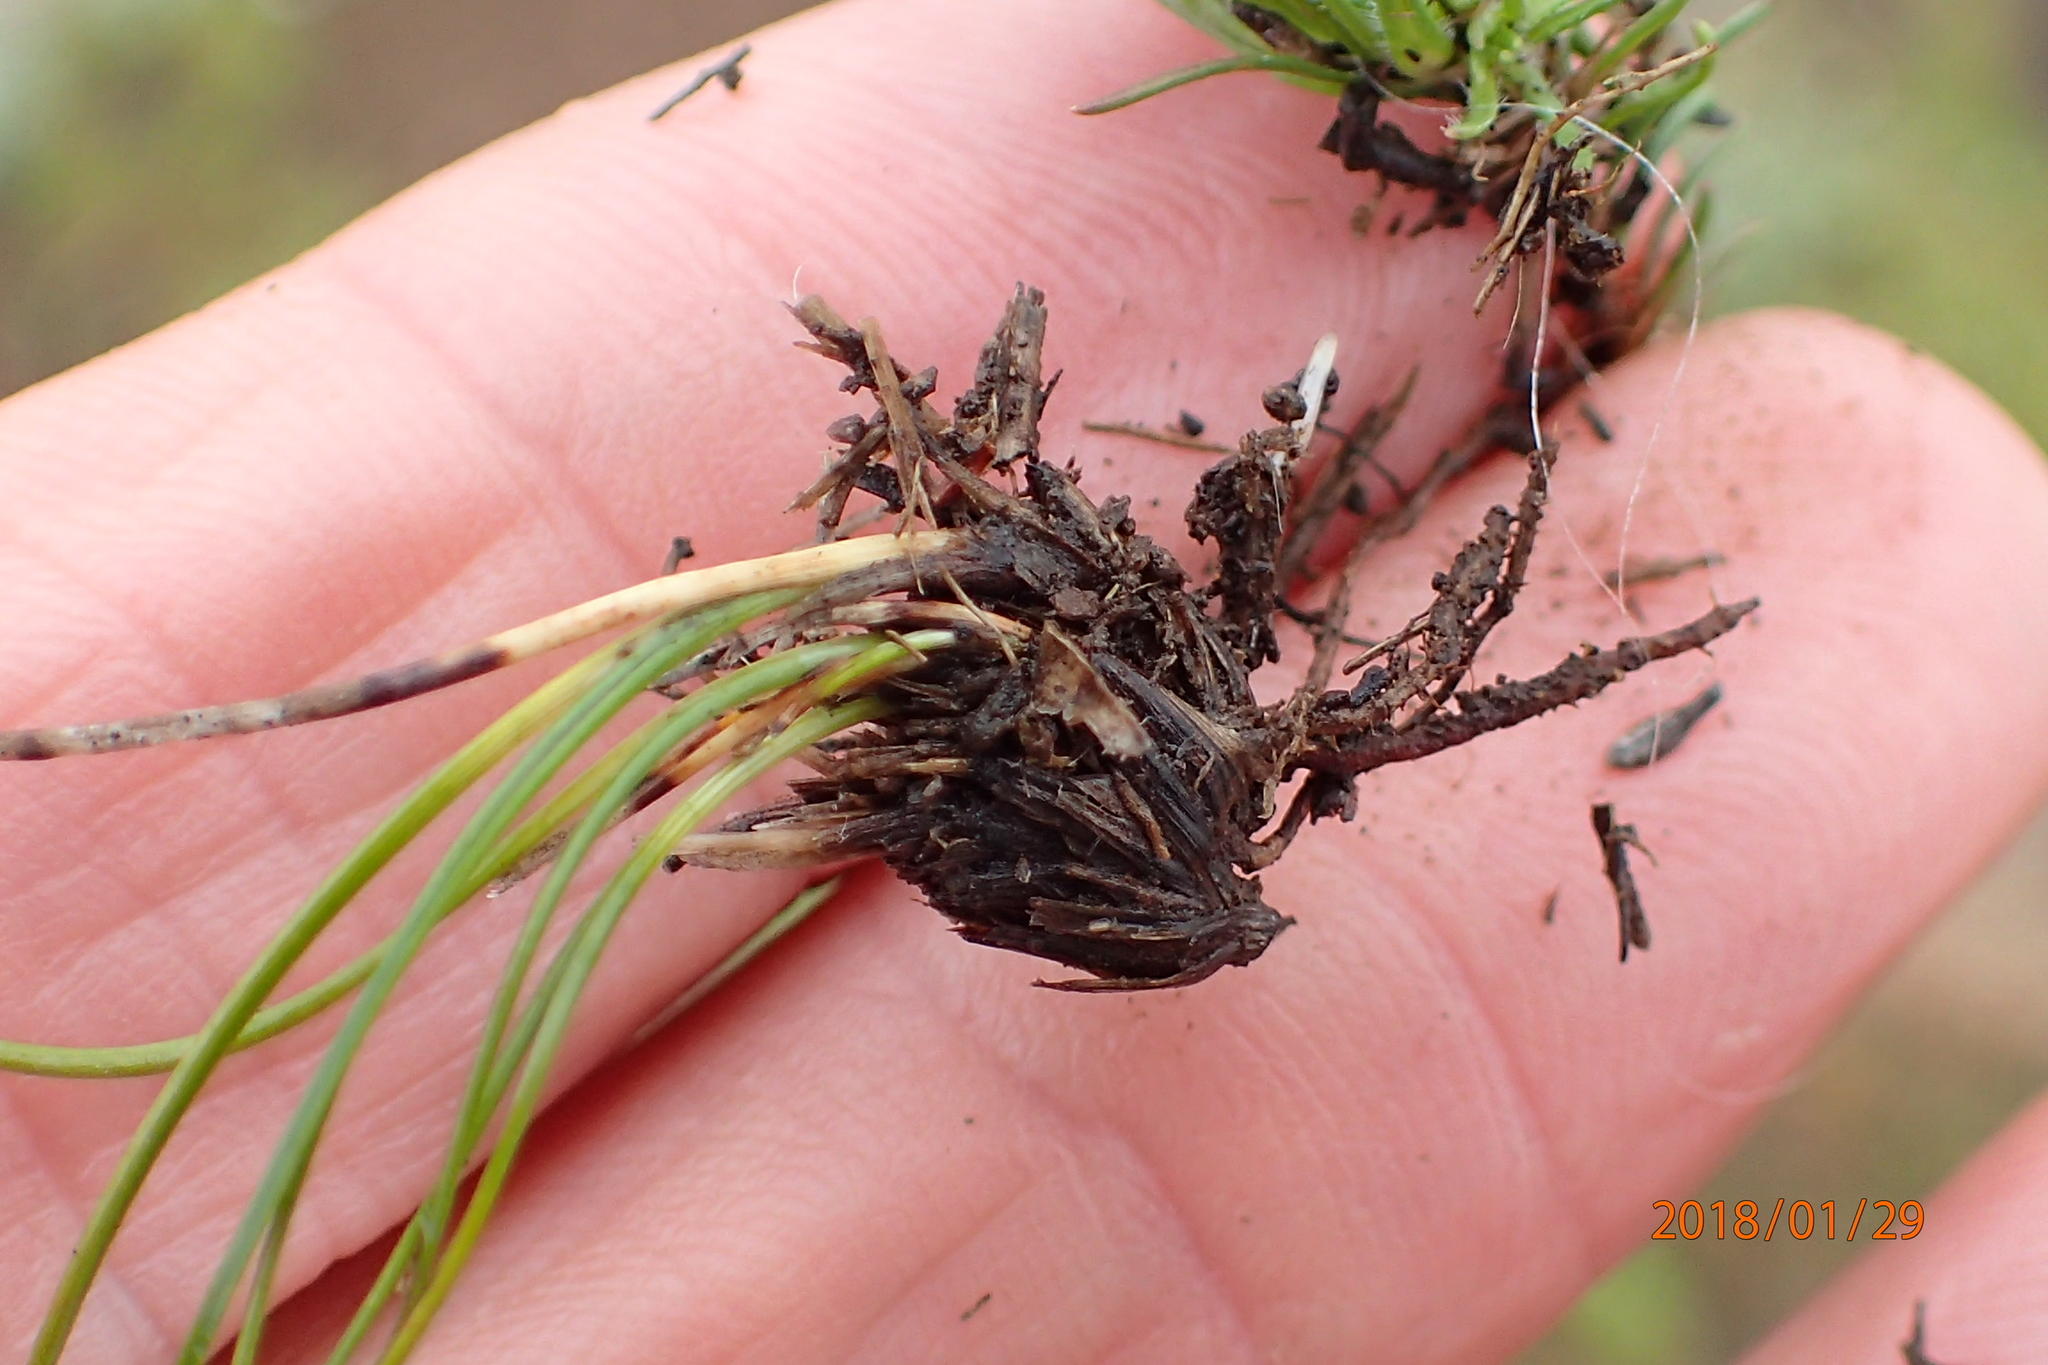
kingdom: Plantae
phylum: Tracheophyta
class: Magnoliopsida
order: Asterales
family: Campanulaceae
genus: Wahlenbergia
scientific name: Wahlenbergia polytrichifolia
